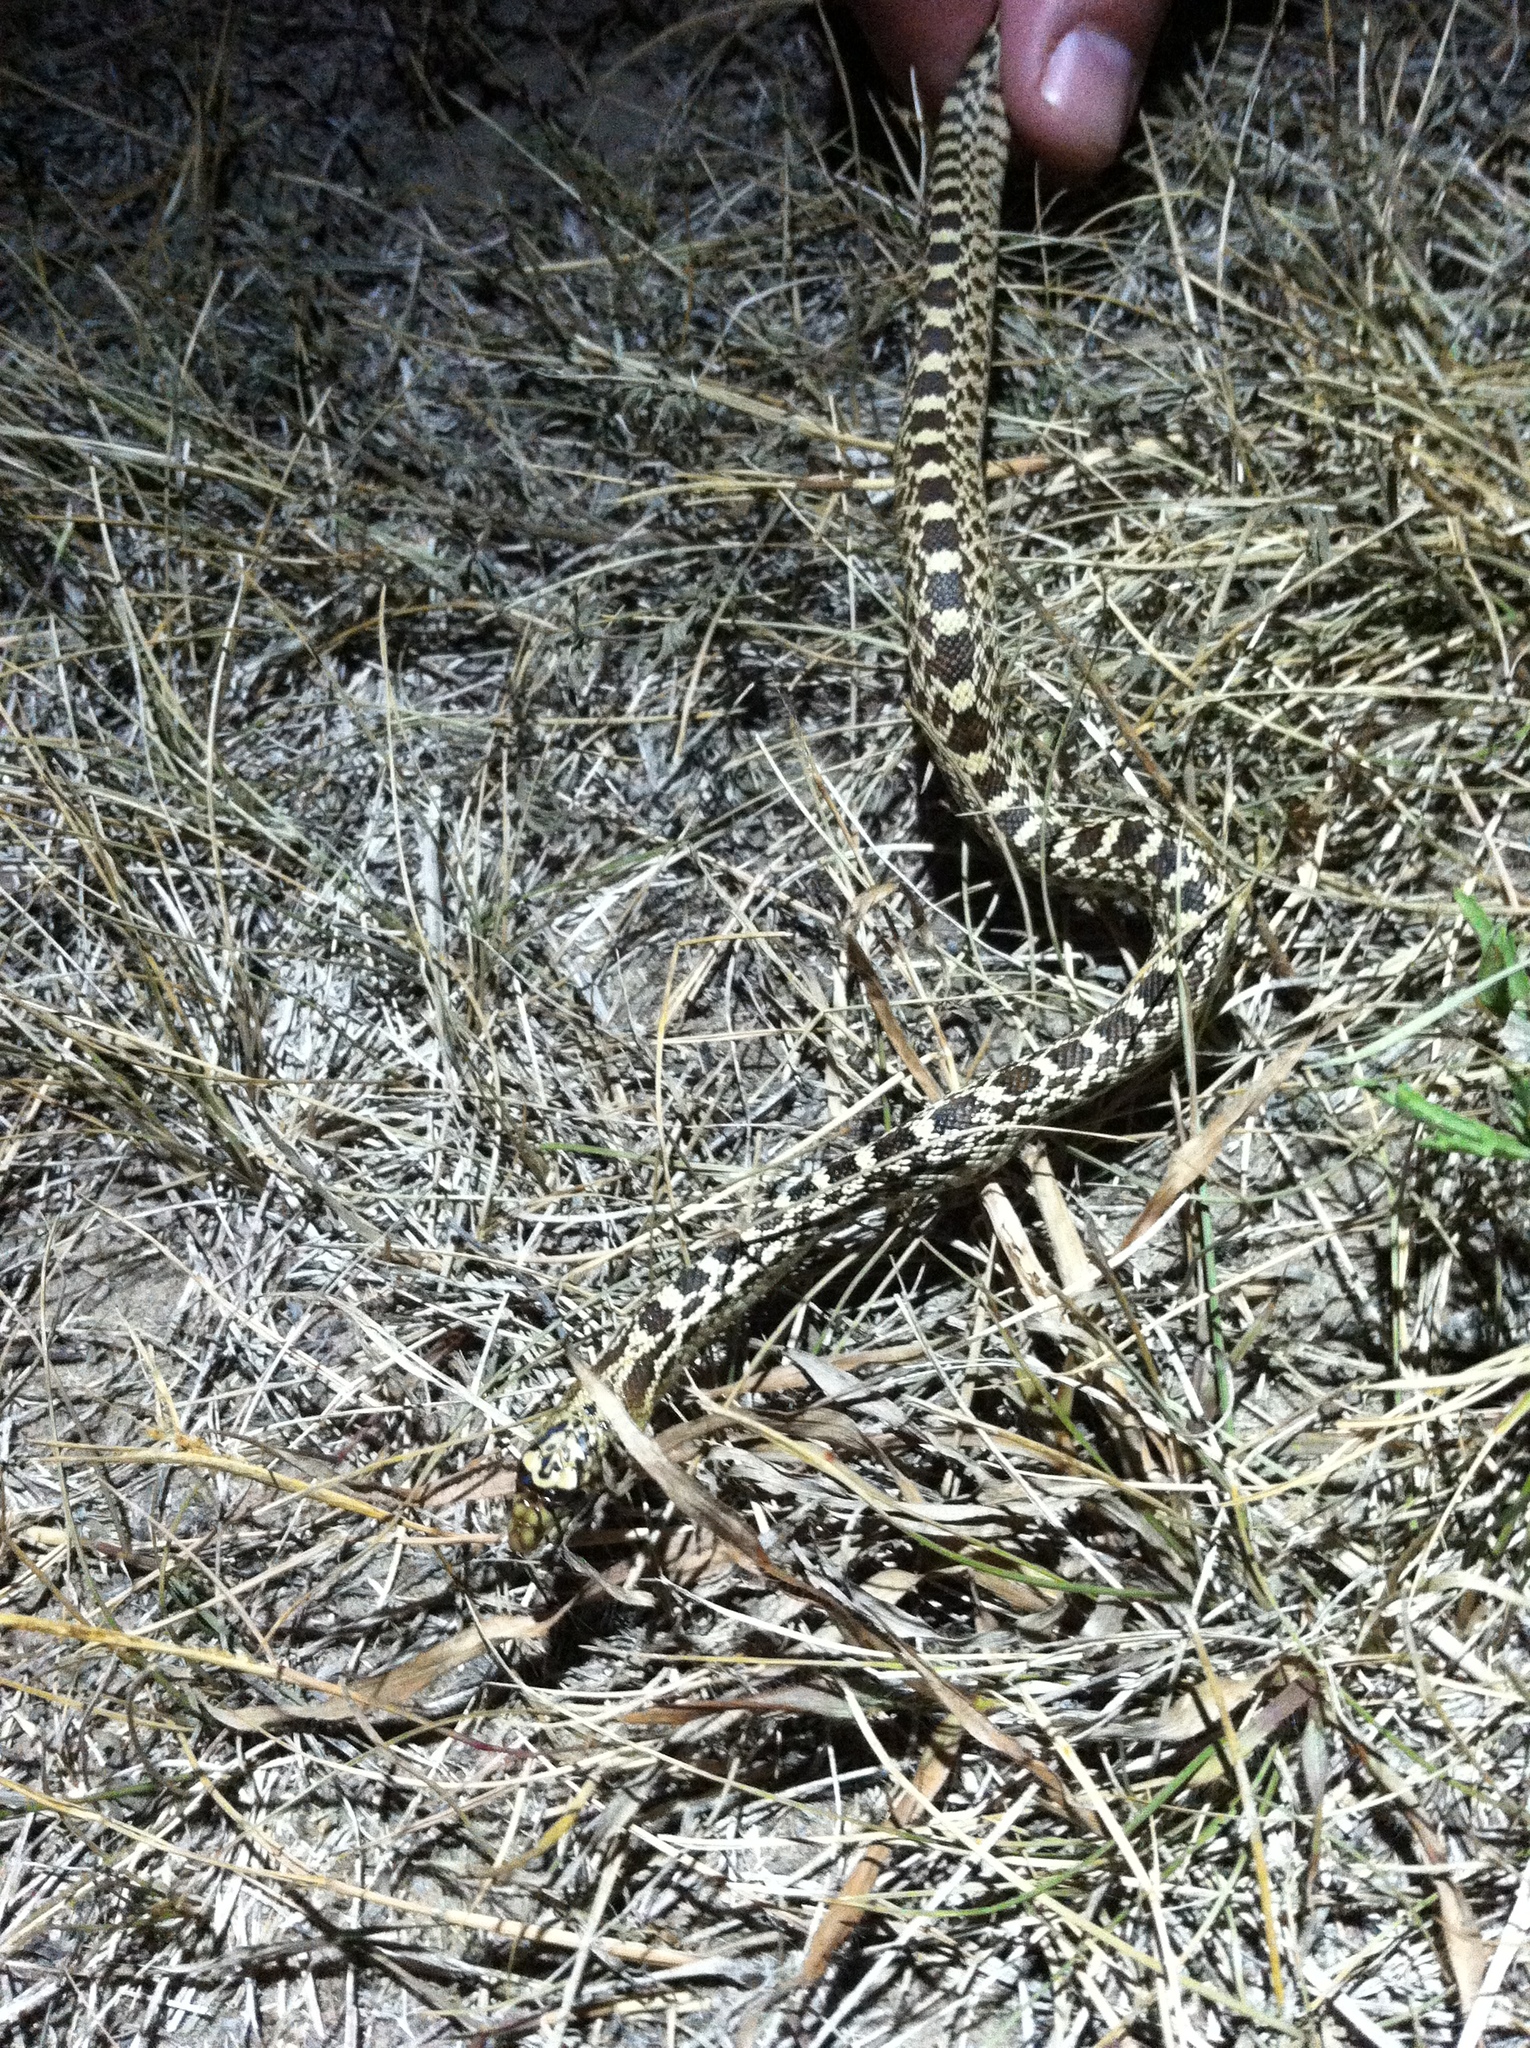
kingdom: Animalia
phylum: Chordata
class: Squamata
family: Colubridae
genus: Pituophis
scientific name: Pituophis catenifer
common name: Gopher snake
